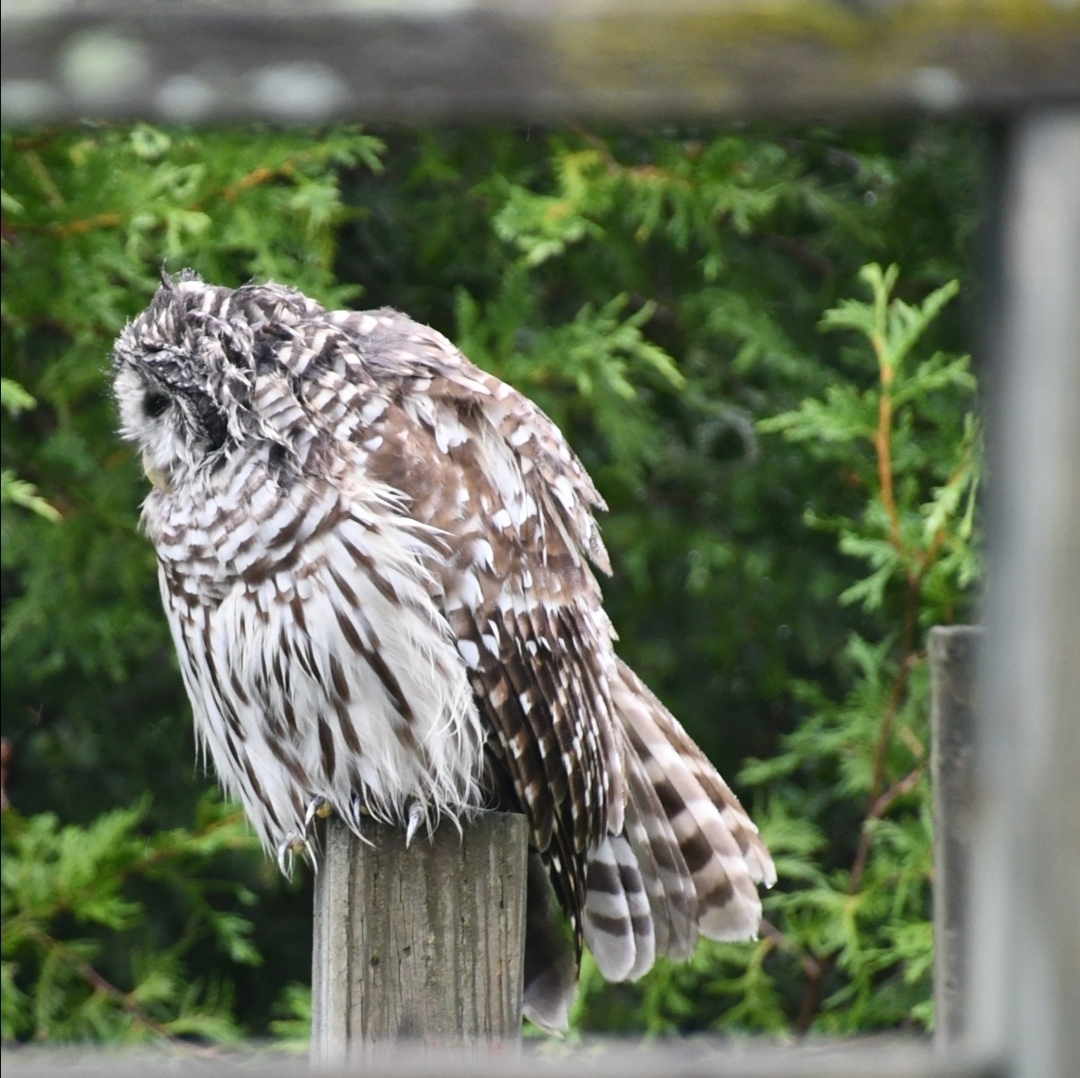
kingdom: Animalia
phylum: Chordata
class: Aves
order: Strigiformes
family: Strigidae
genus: Strix
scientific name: Strix varia
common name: Barred owl
